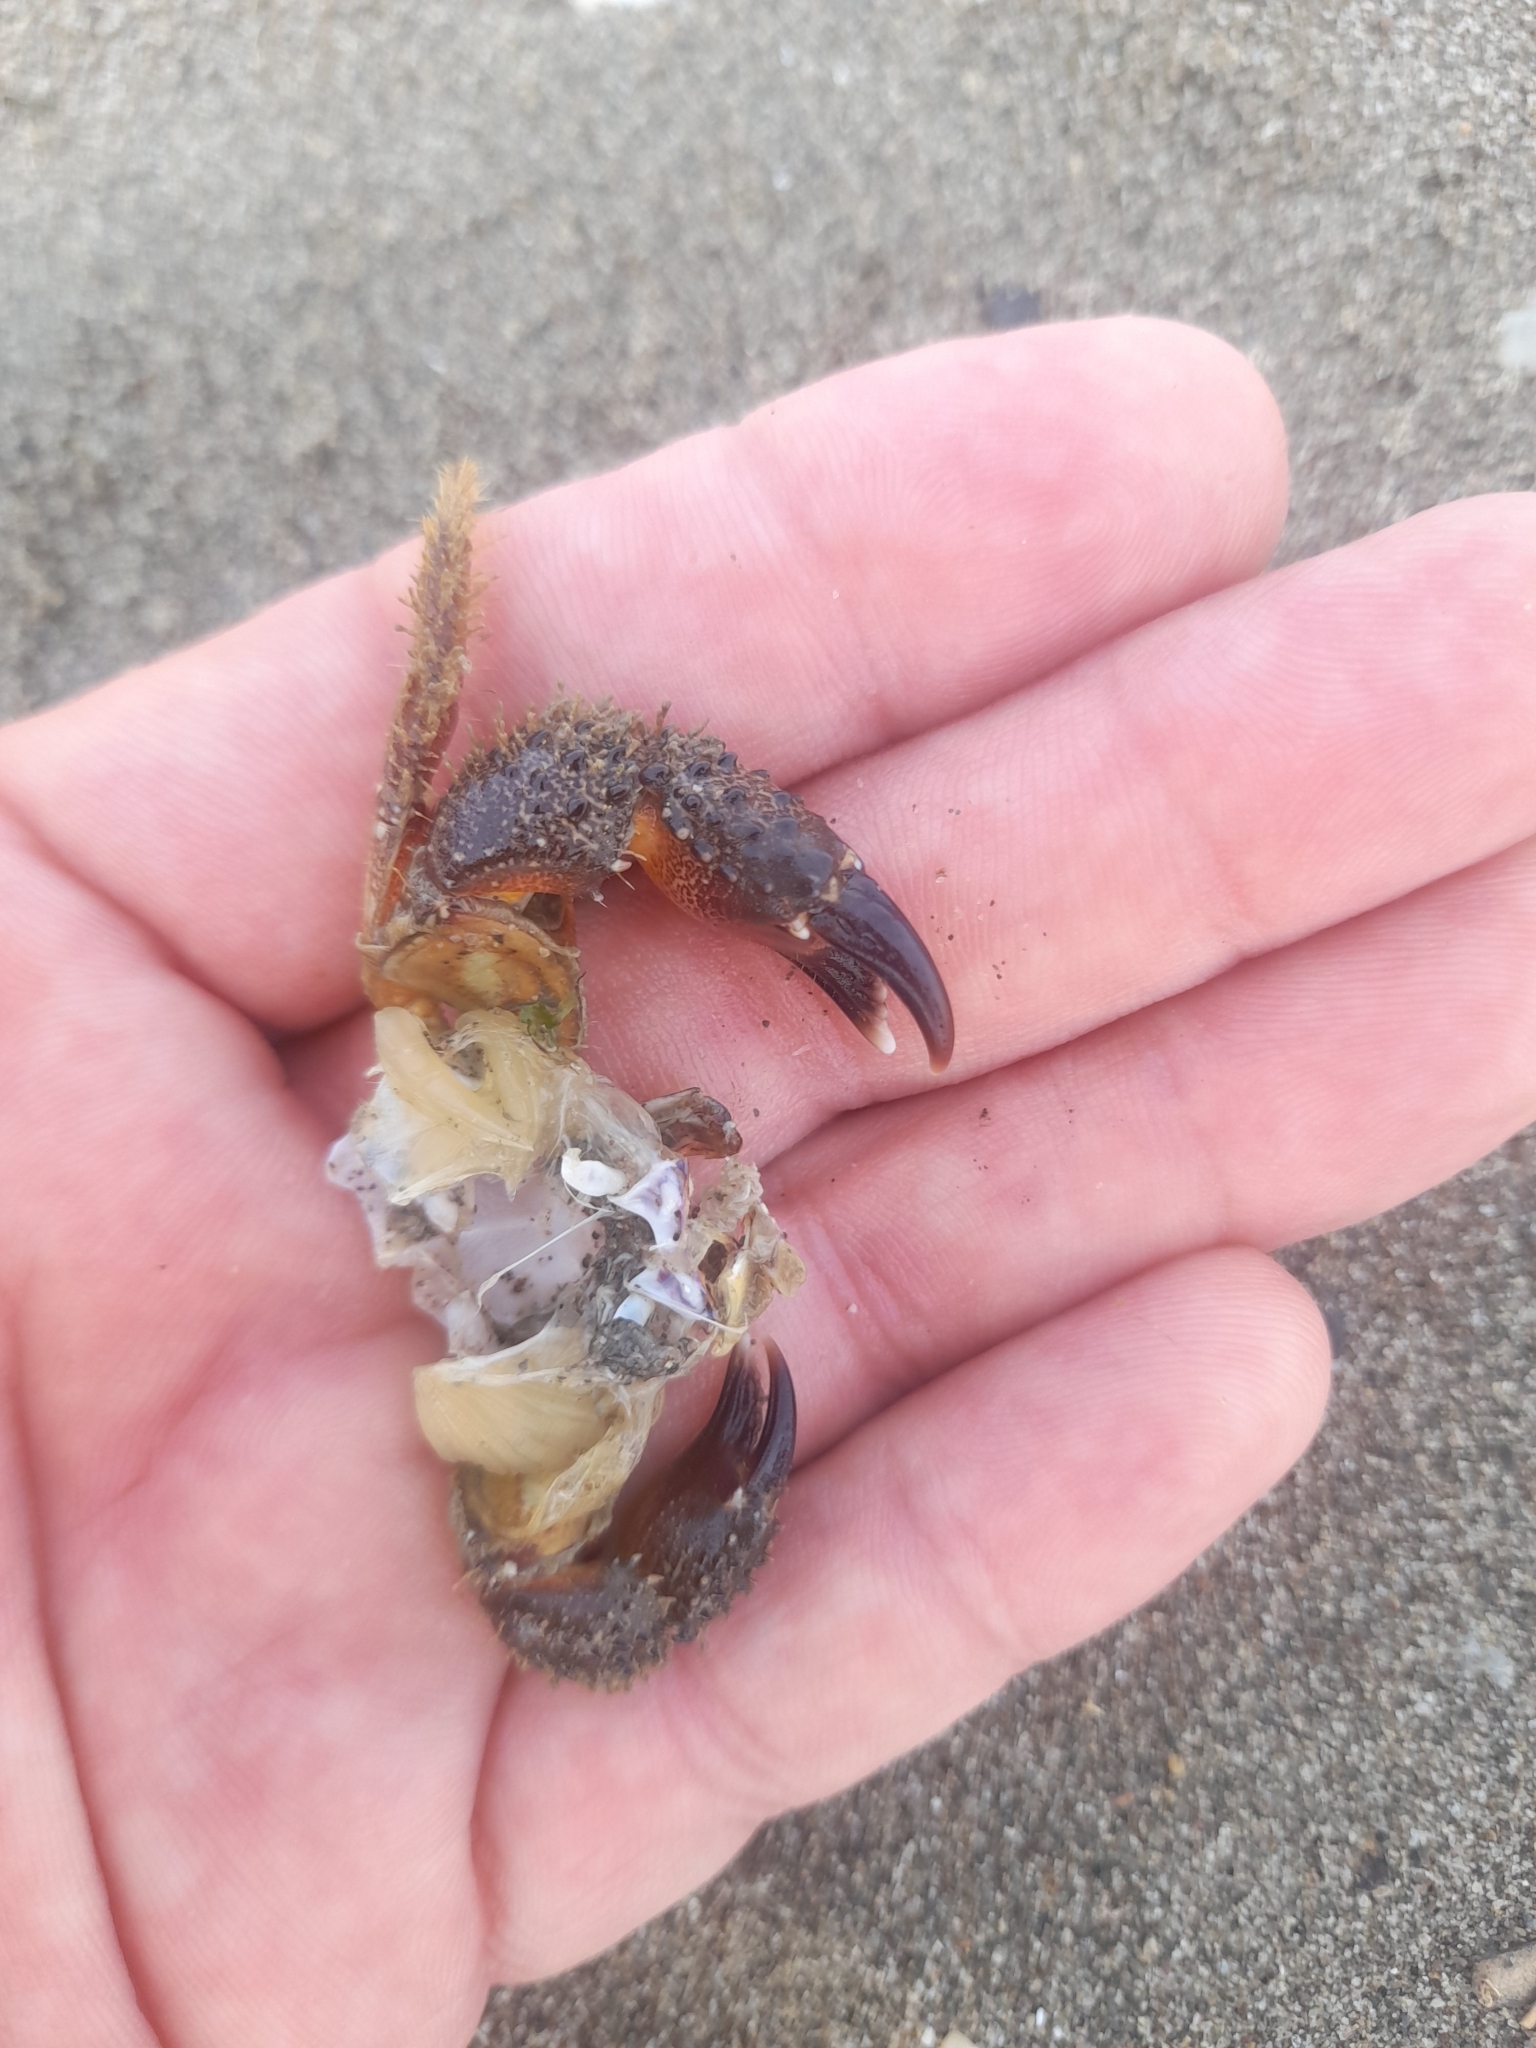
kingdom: Animalia
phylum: Arthropoda
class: Malacostraca
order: Decapoda
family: Eriphiidae
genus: Eriphia
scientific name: Eriphia verrucosa
